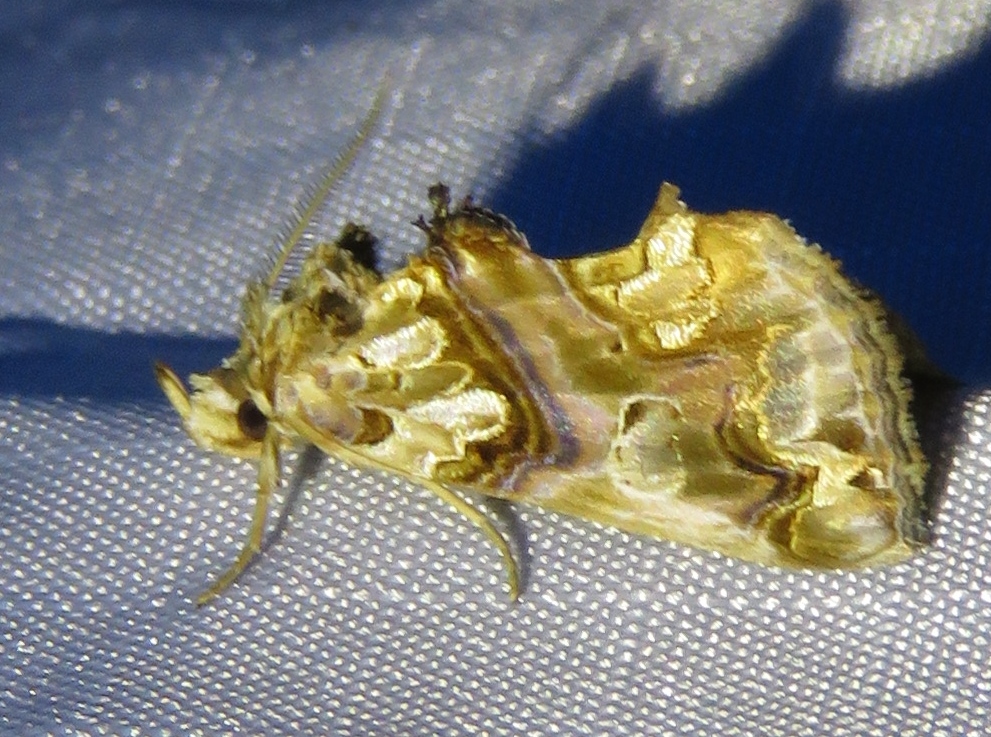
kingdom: Animalia
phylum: Arthropoda
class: Insecta
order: Lepidoptera
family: Erebidae
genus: Plusiodonta
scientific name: Plusiodonta compressipalpis
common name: Moonseed moth
